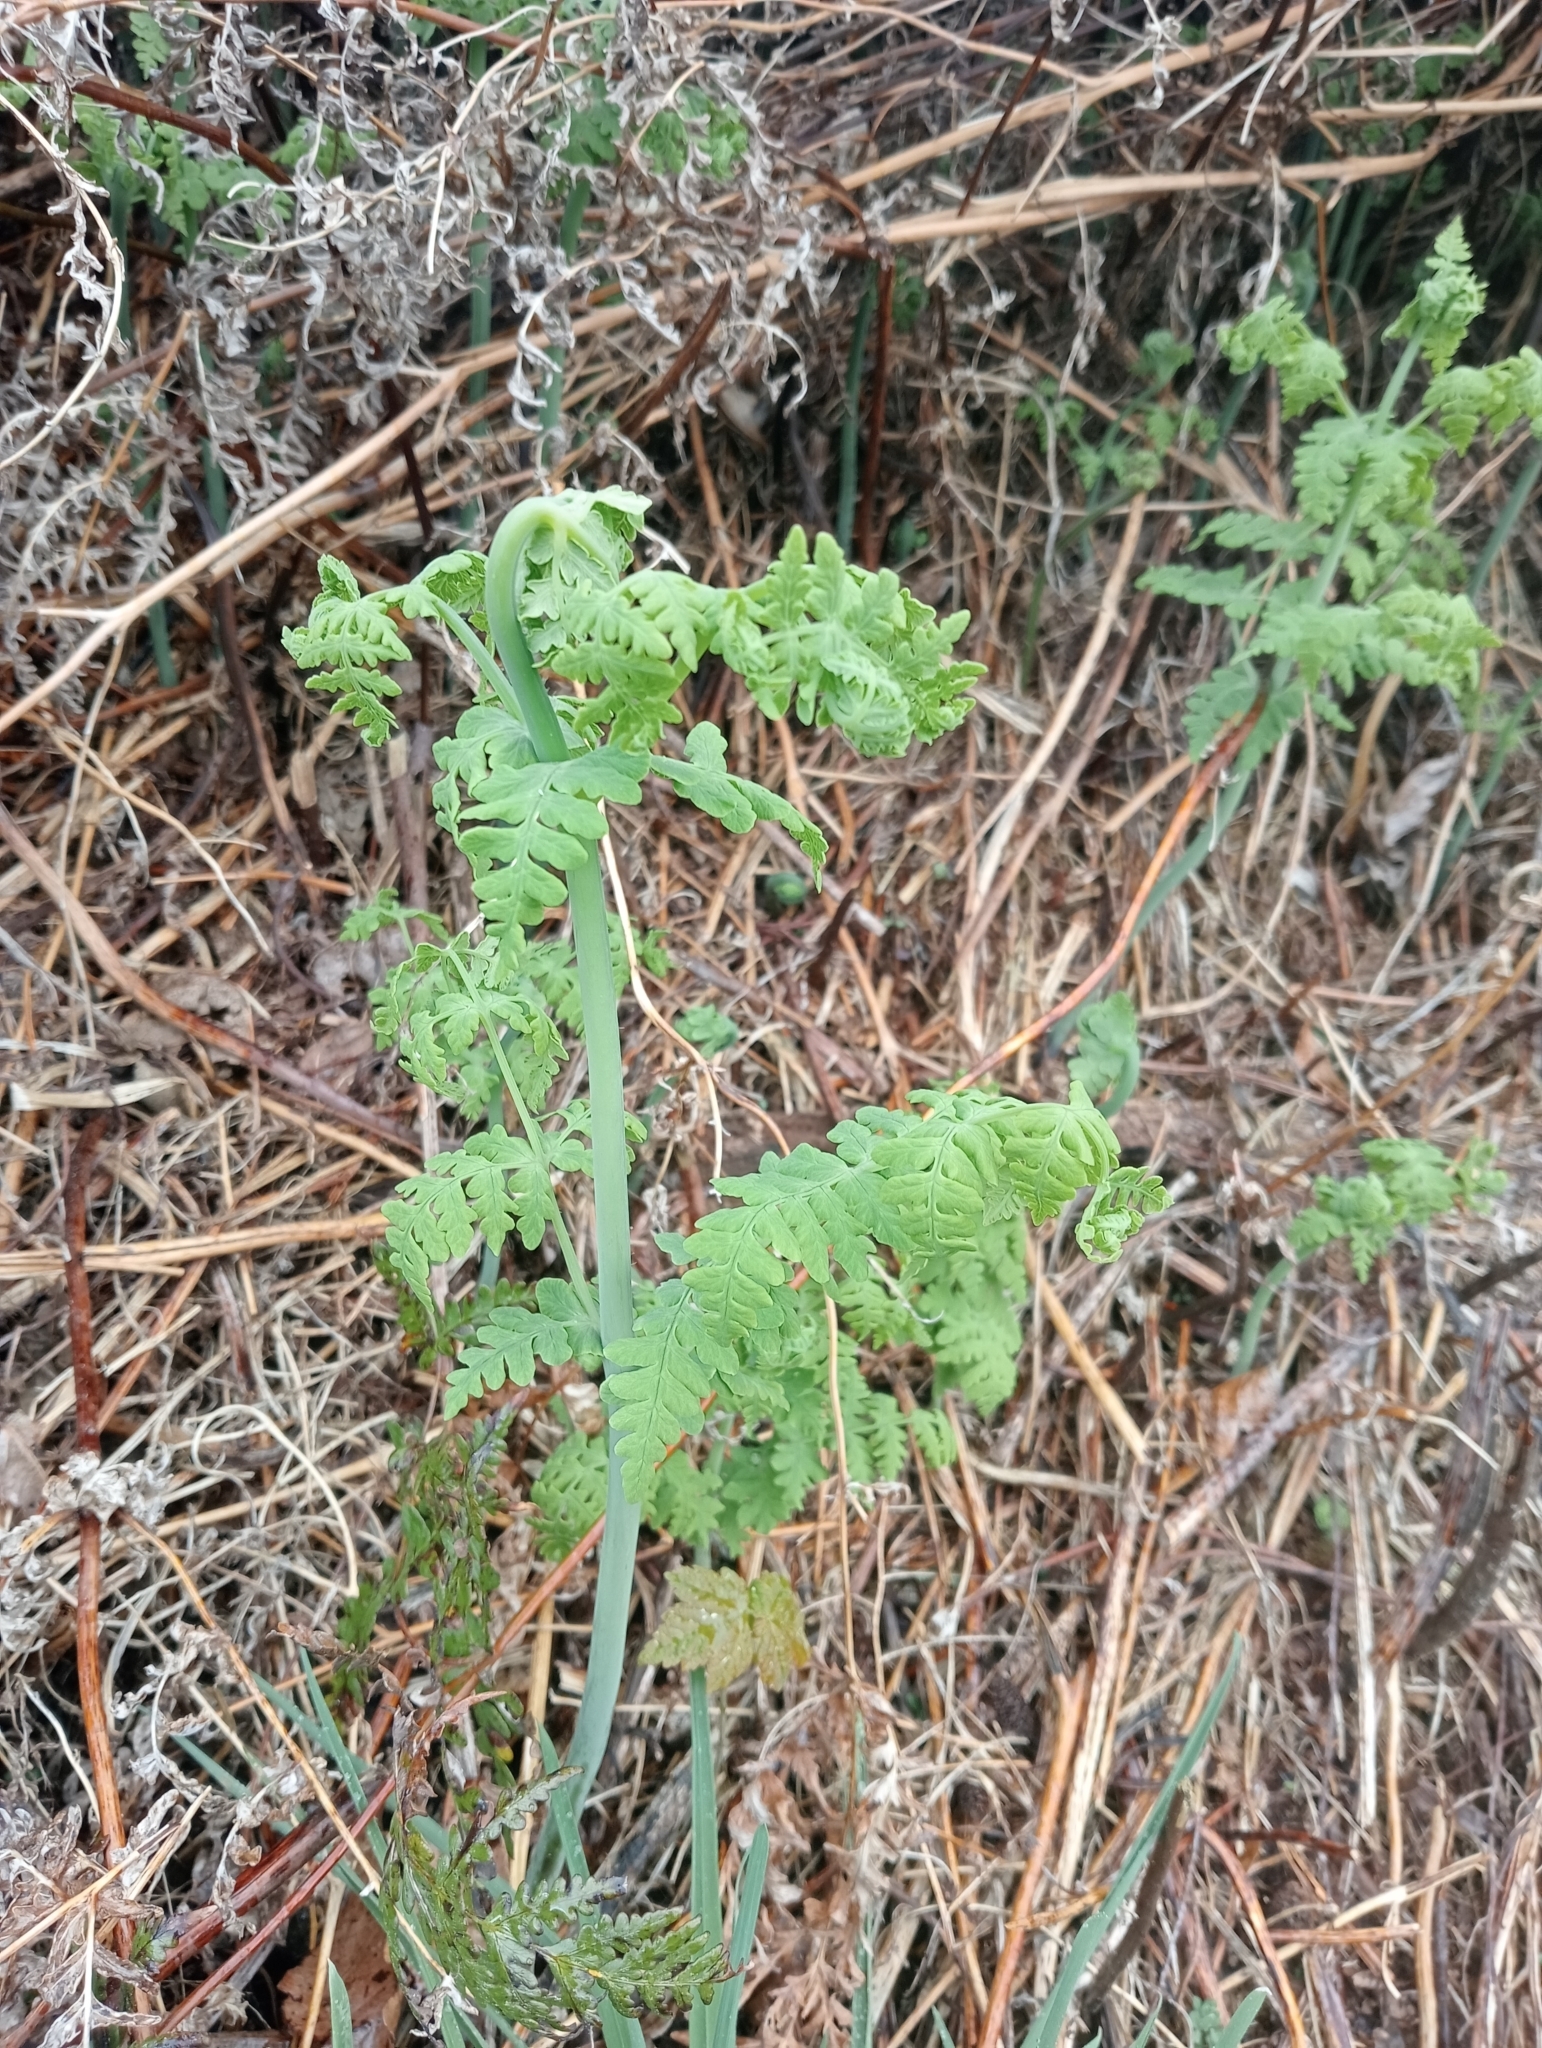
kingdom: Plantae
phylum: Tracheophyta
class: Polypodiopsida
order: Polypodiales
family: Dennstaedtiaceae
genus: Histiopteris
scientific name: Histiopteris incisa
